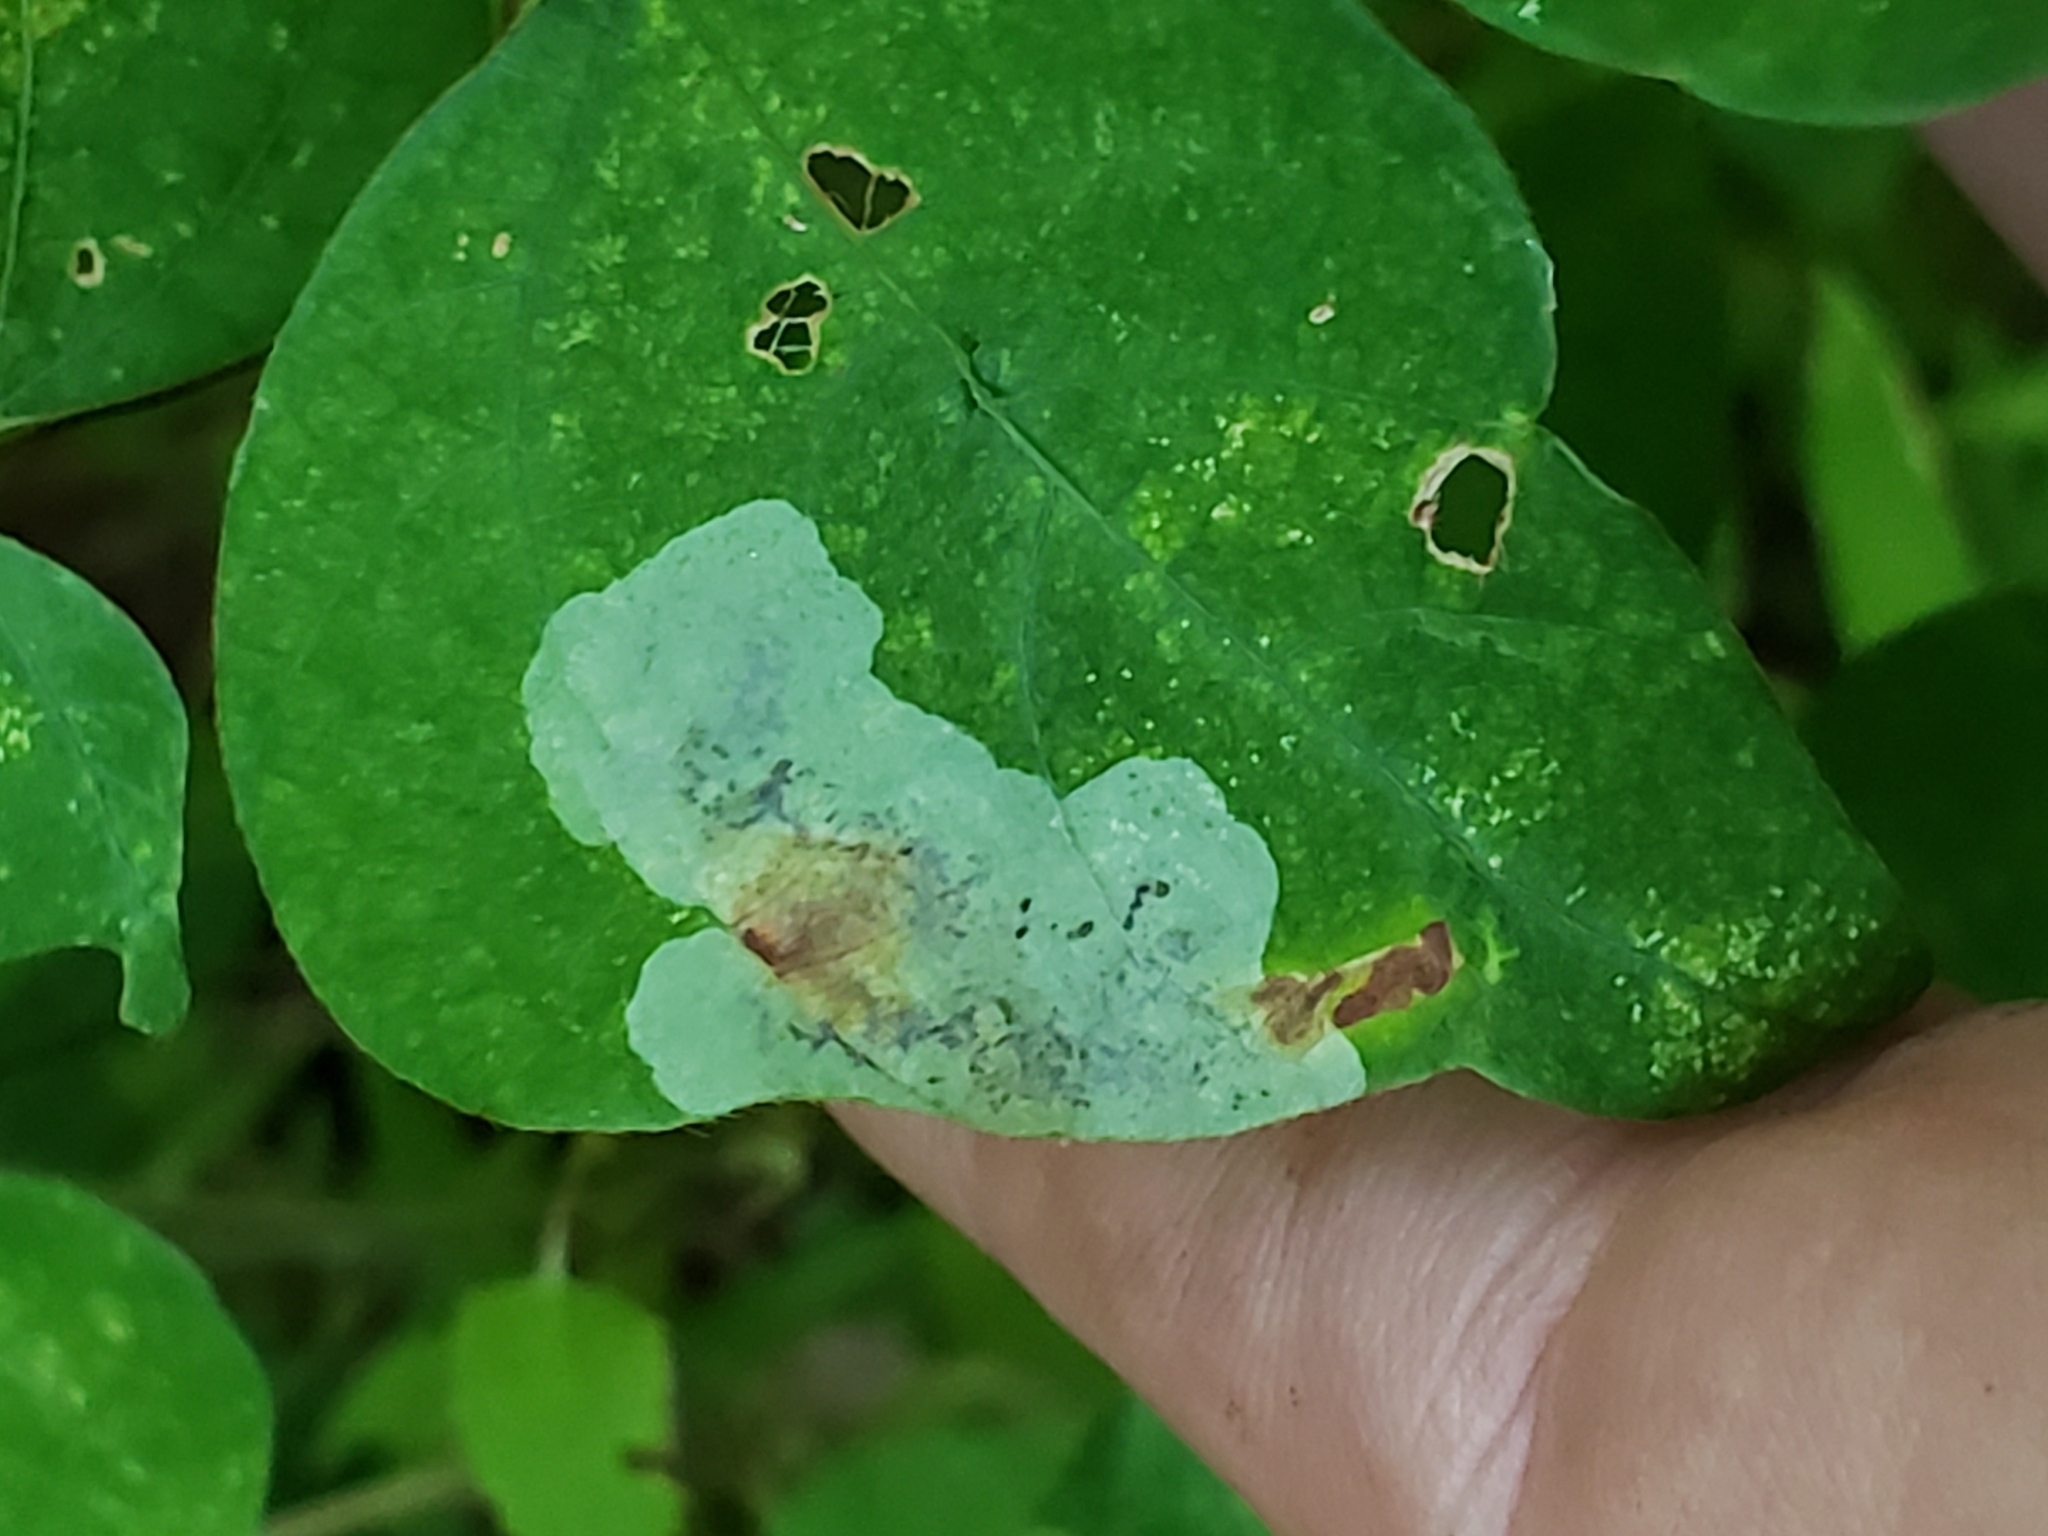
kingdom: Animalia
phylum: Arthropoda
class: Insecta
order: Lepidoptera
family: Gracillariidae
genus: Leucanthiza
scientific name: Leucanthiza amphicarpeaefoliella
